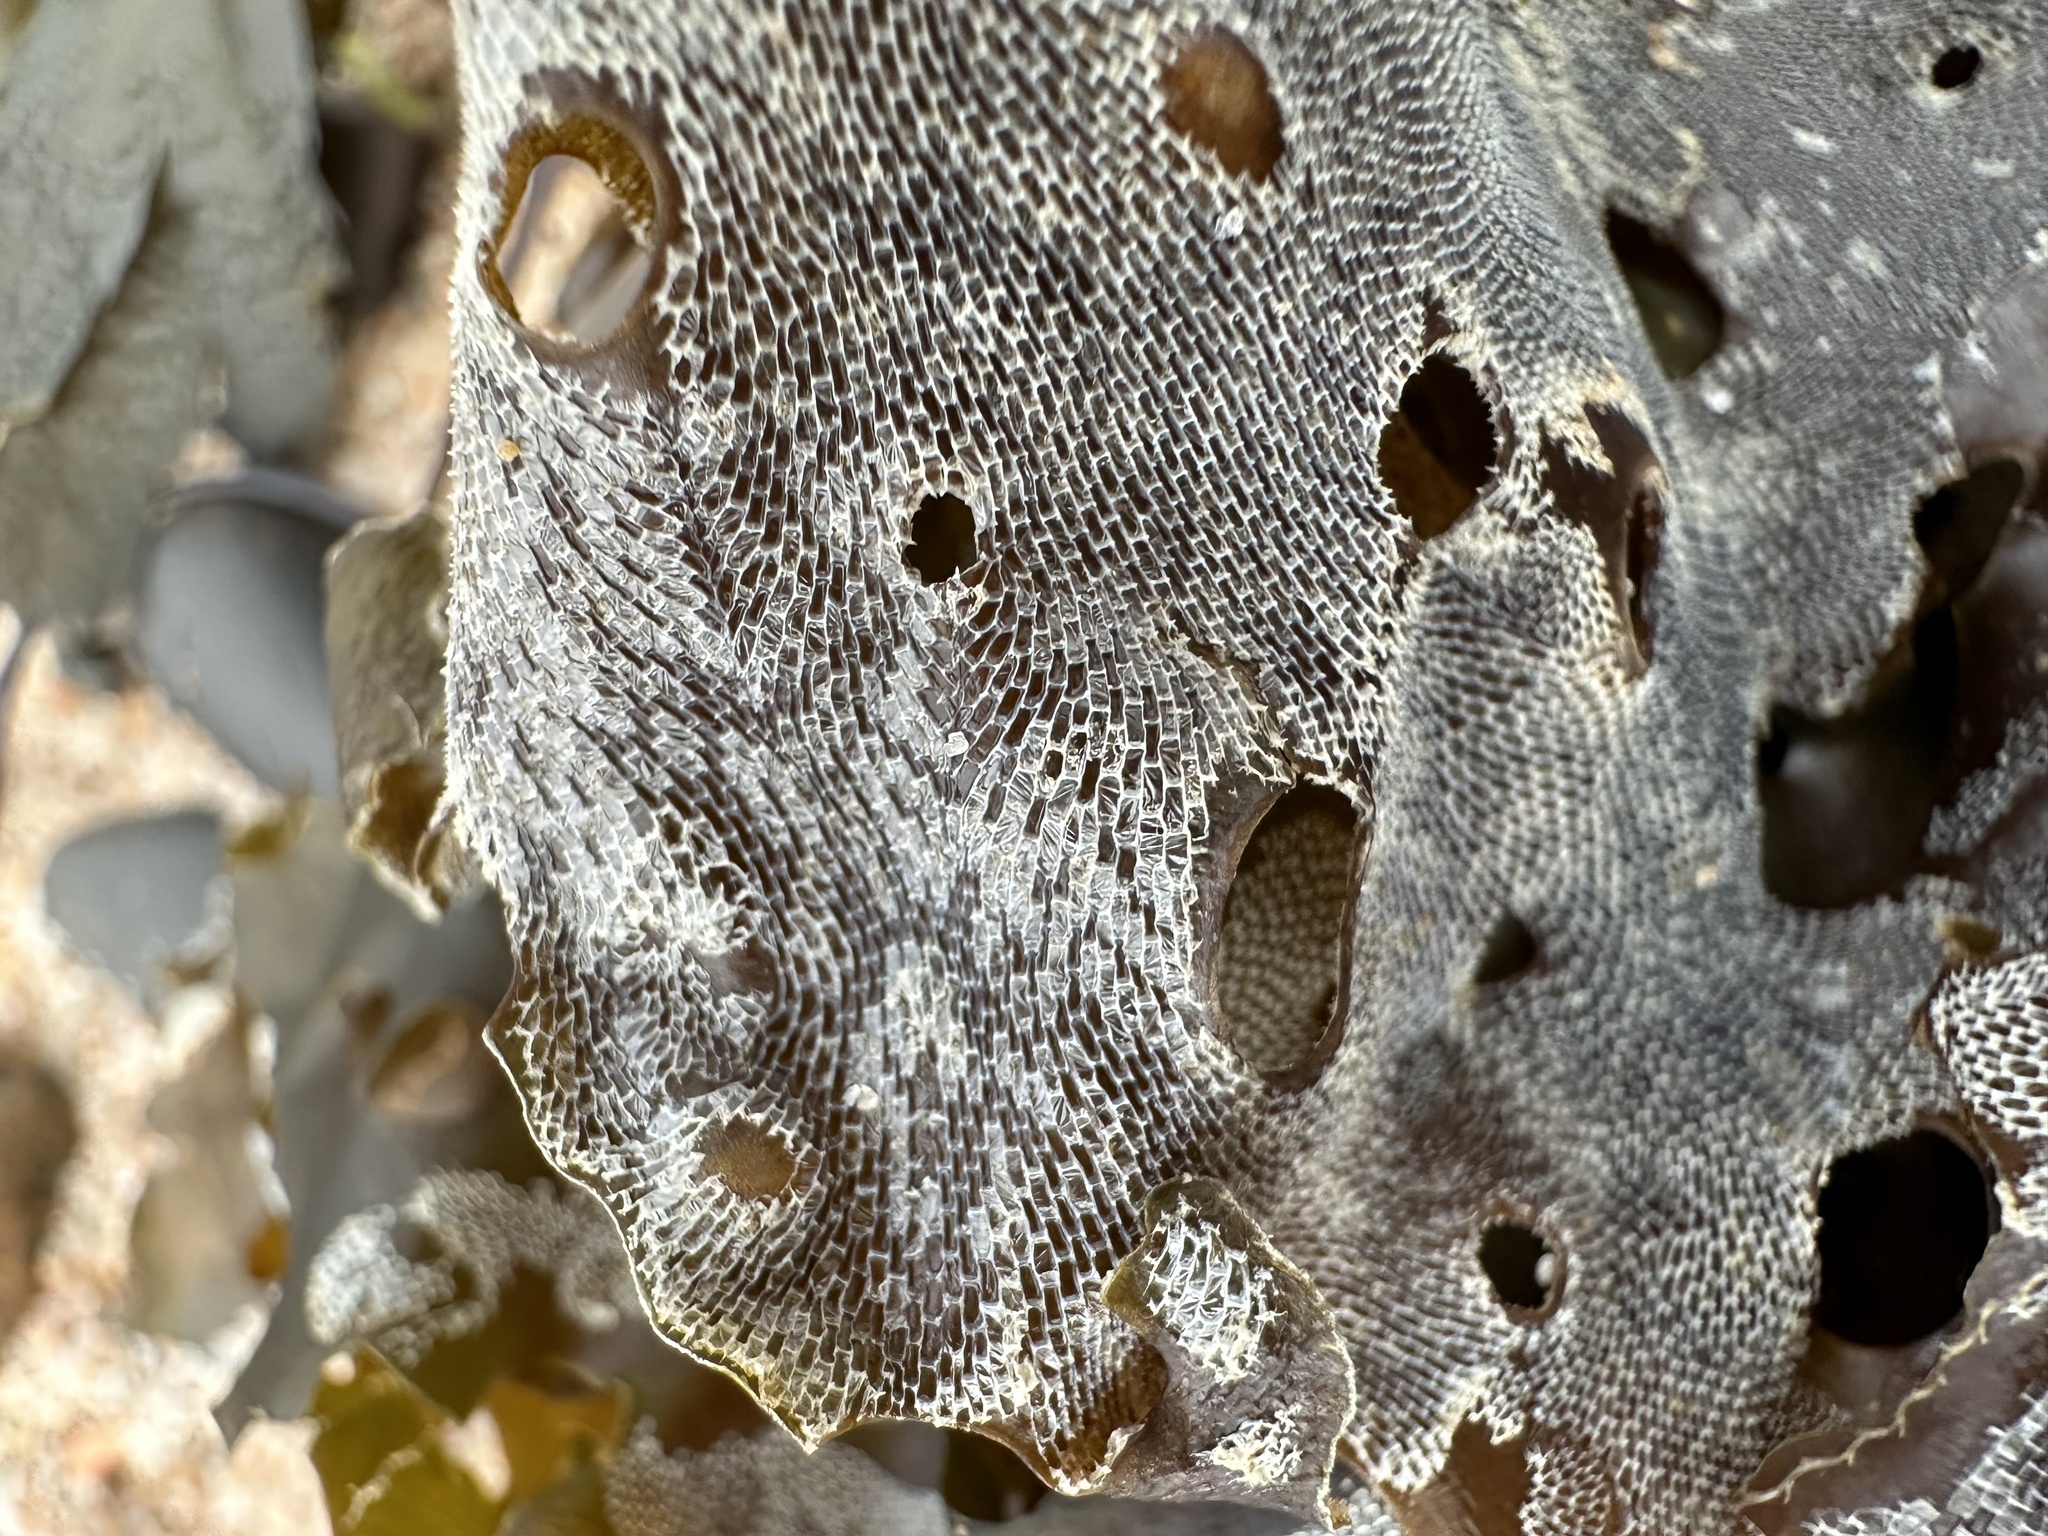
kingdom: Animalia
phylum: Bryozoa
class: Gymnolaemata
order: Cheilostomatida
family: Membraniporidae
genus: Membranipora
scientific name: Membranipora membranacea
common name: Sea mat
